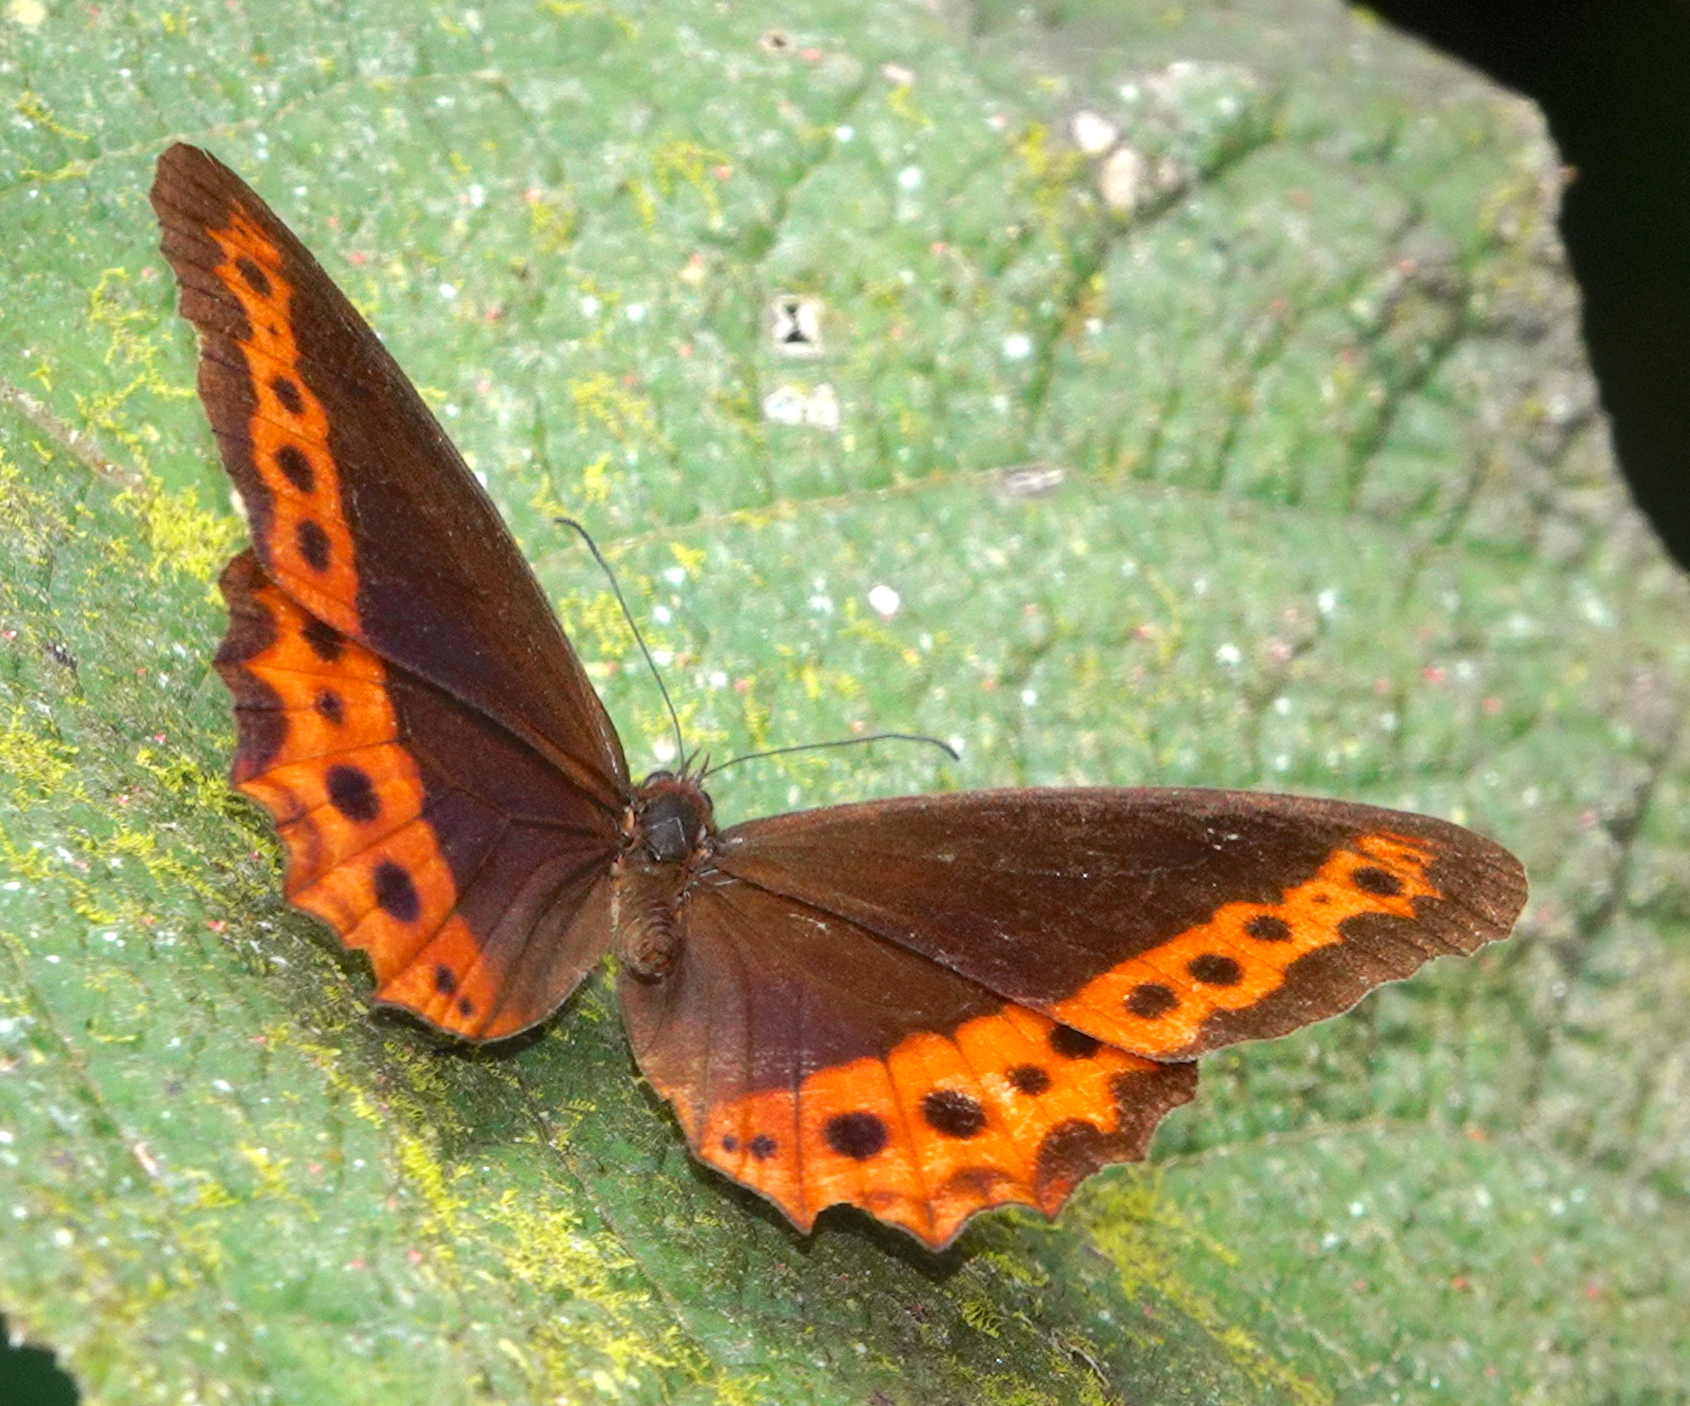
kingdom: Animalia
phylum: Arthropoda
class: Insecta
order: Lepidoptera
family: Nymphalidae
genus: Oxeoschistus
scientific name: Oxeoschistus puerta
